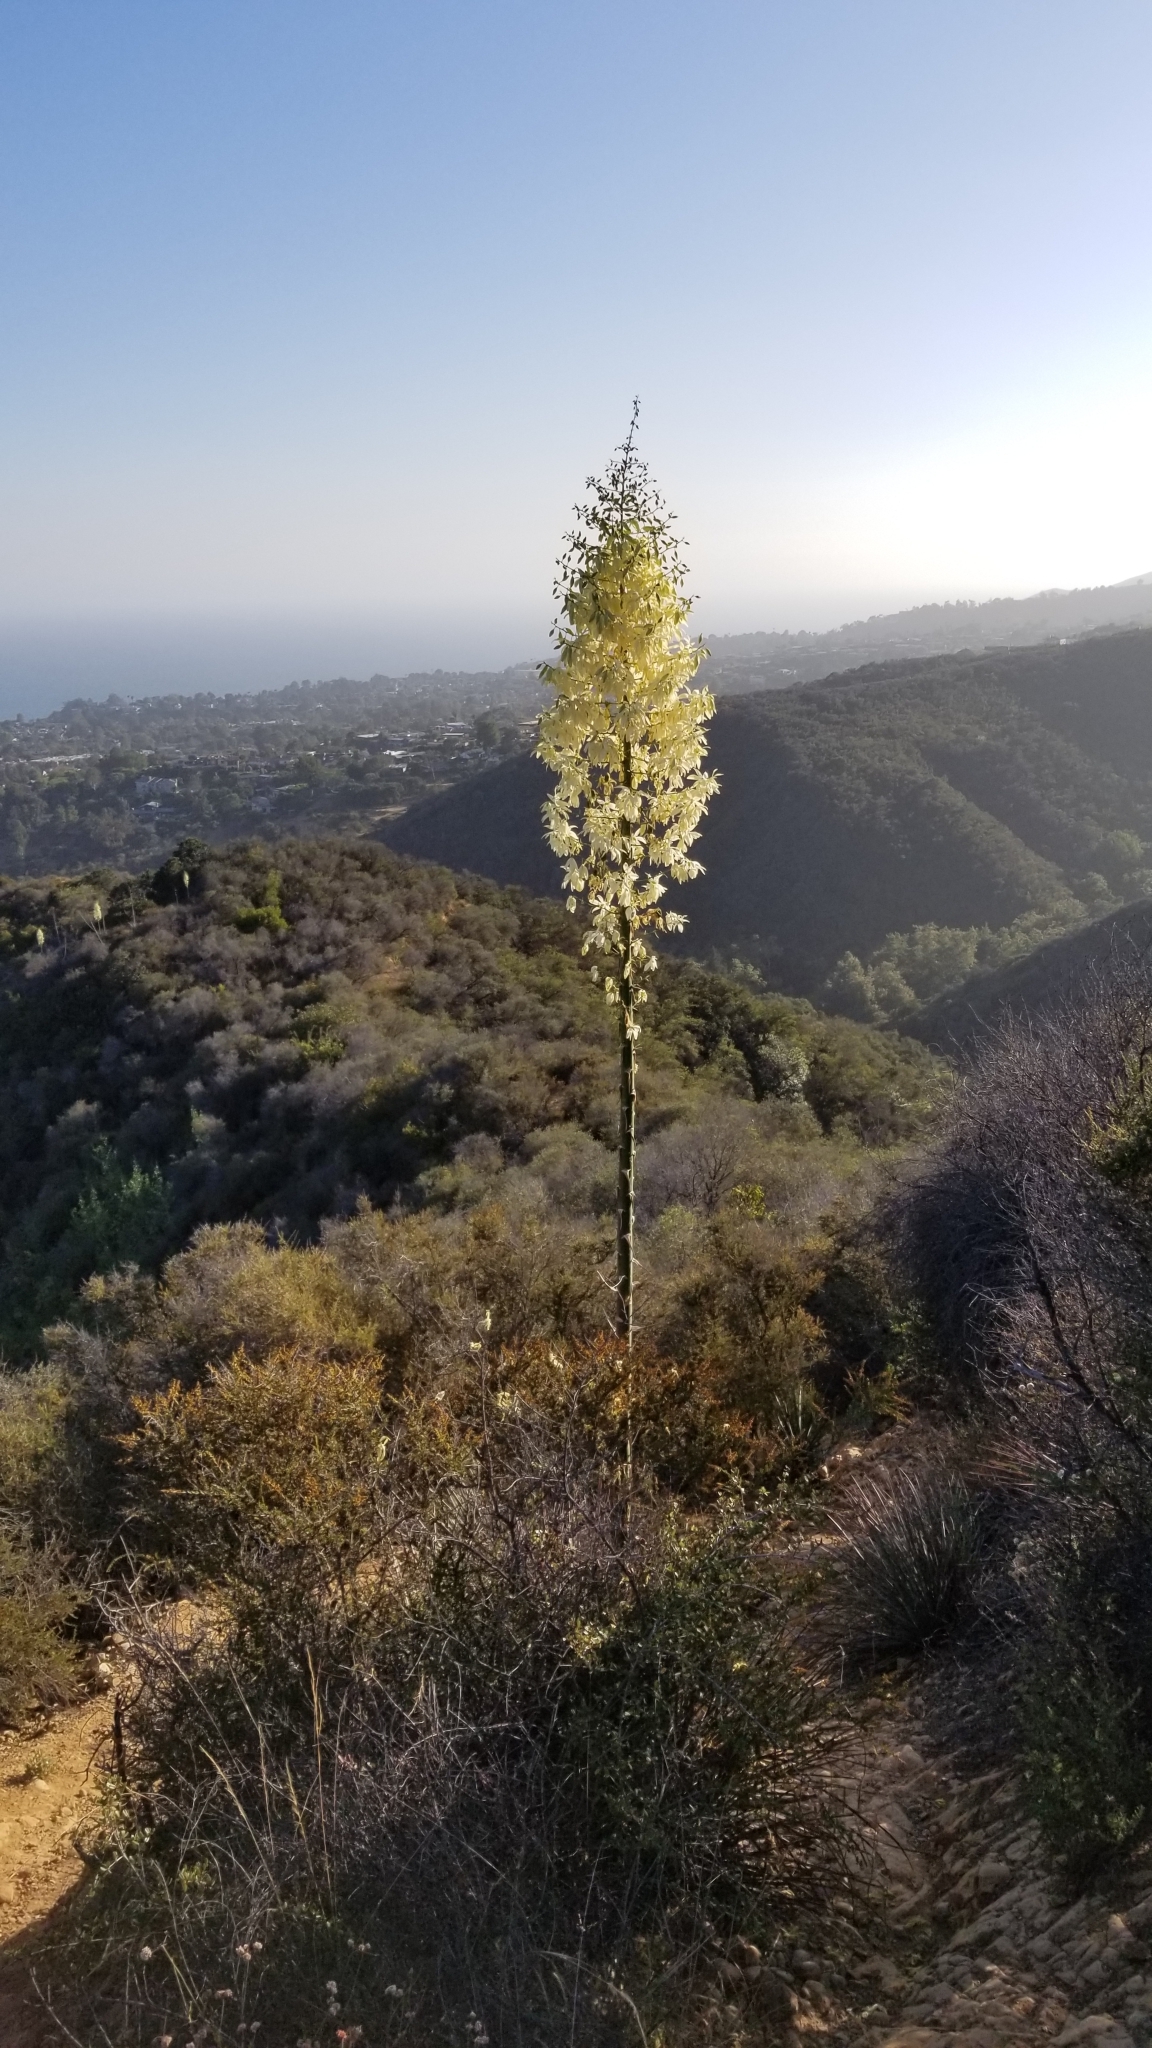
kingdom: Plantae
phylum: Tracheophyta
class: Liliopsida
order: Asparagales
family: Asparagaceae
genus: Hesperoyucca
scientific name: Hesperoyucca whipplei
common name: Our lord's-candle
